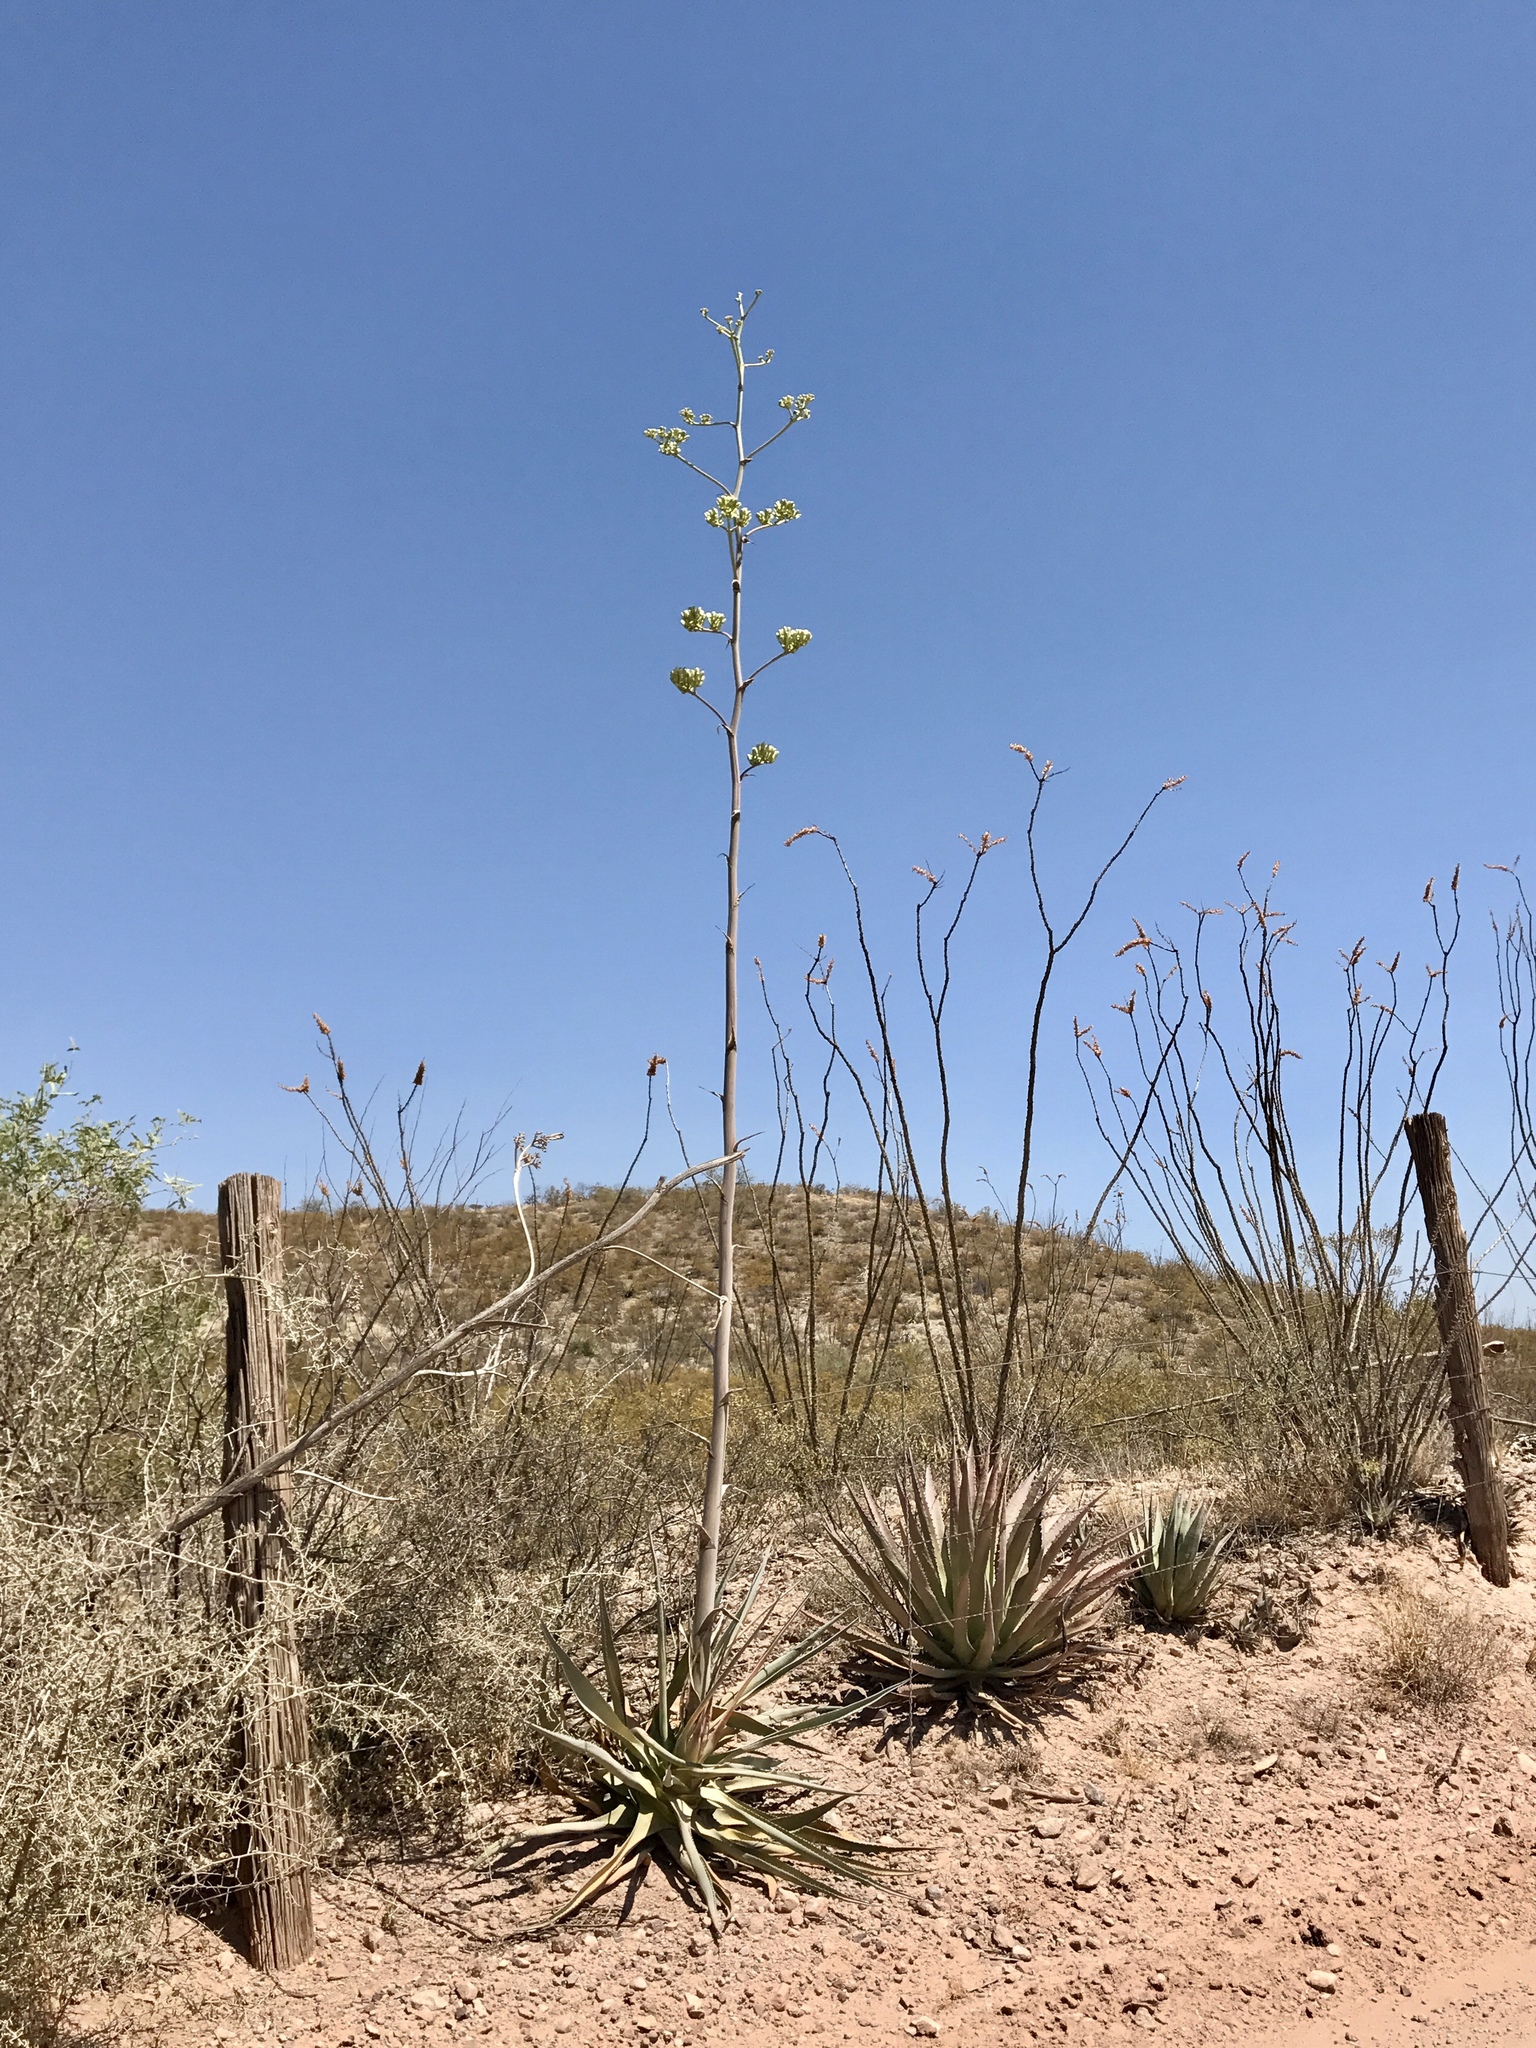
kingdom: Plantae
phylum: Tracheophyta
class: Liliopsida
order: Asparagales
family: Asparagaceae
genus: Agave
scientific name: Agave palmeri
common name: Palmer agave
